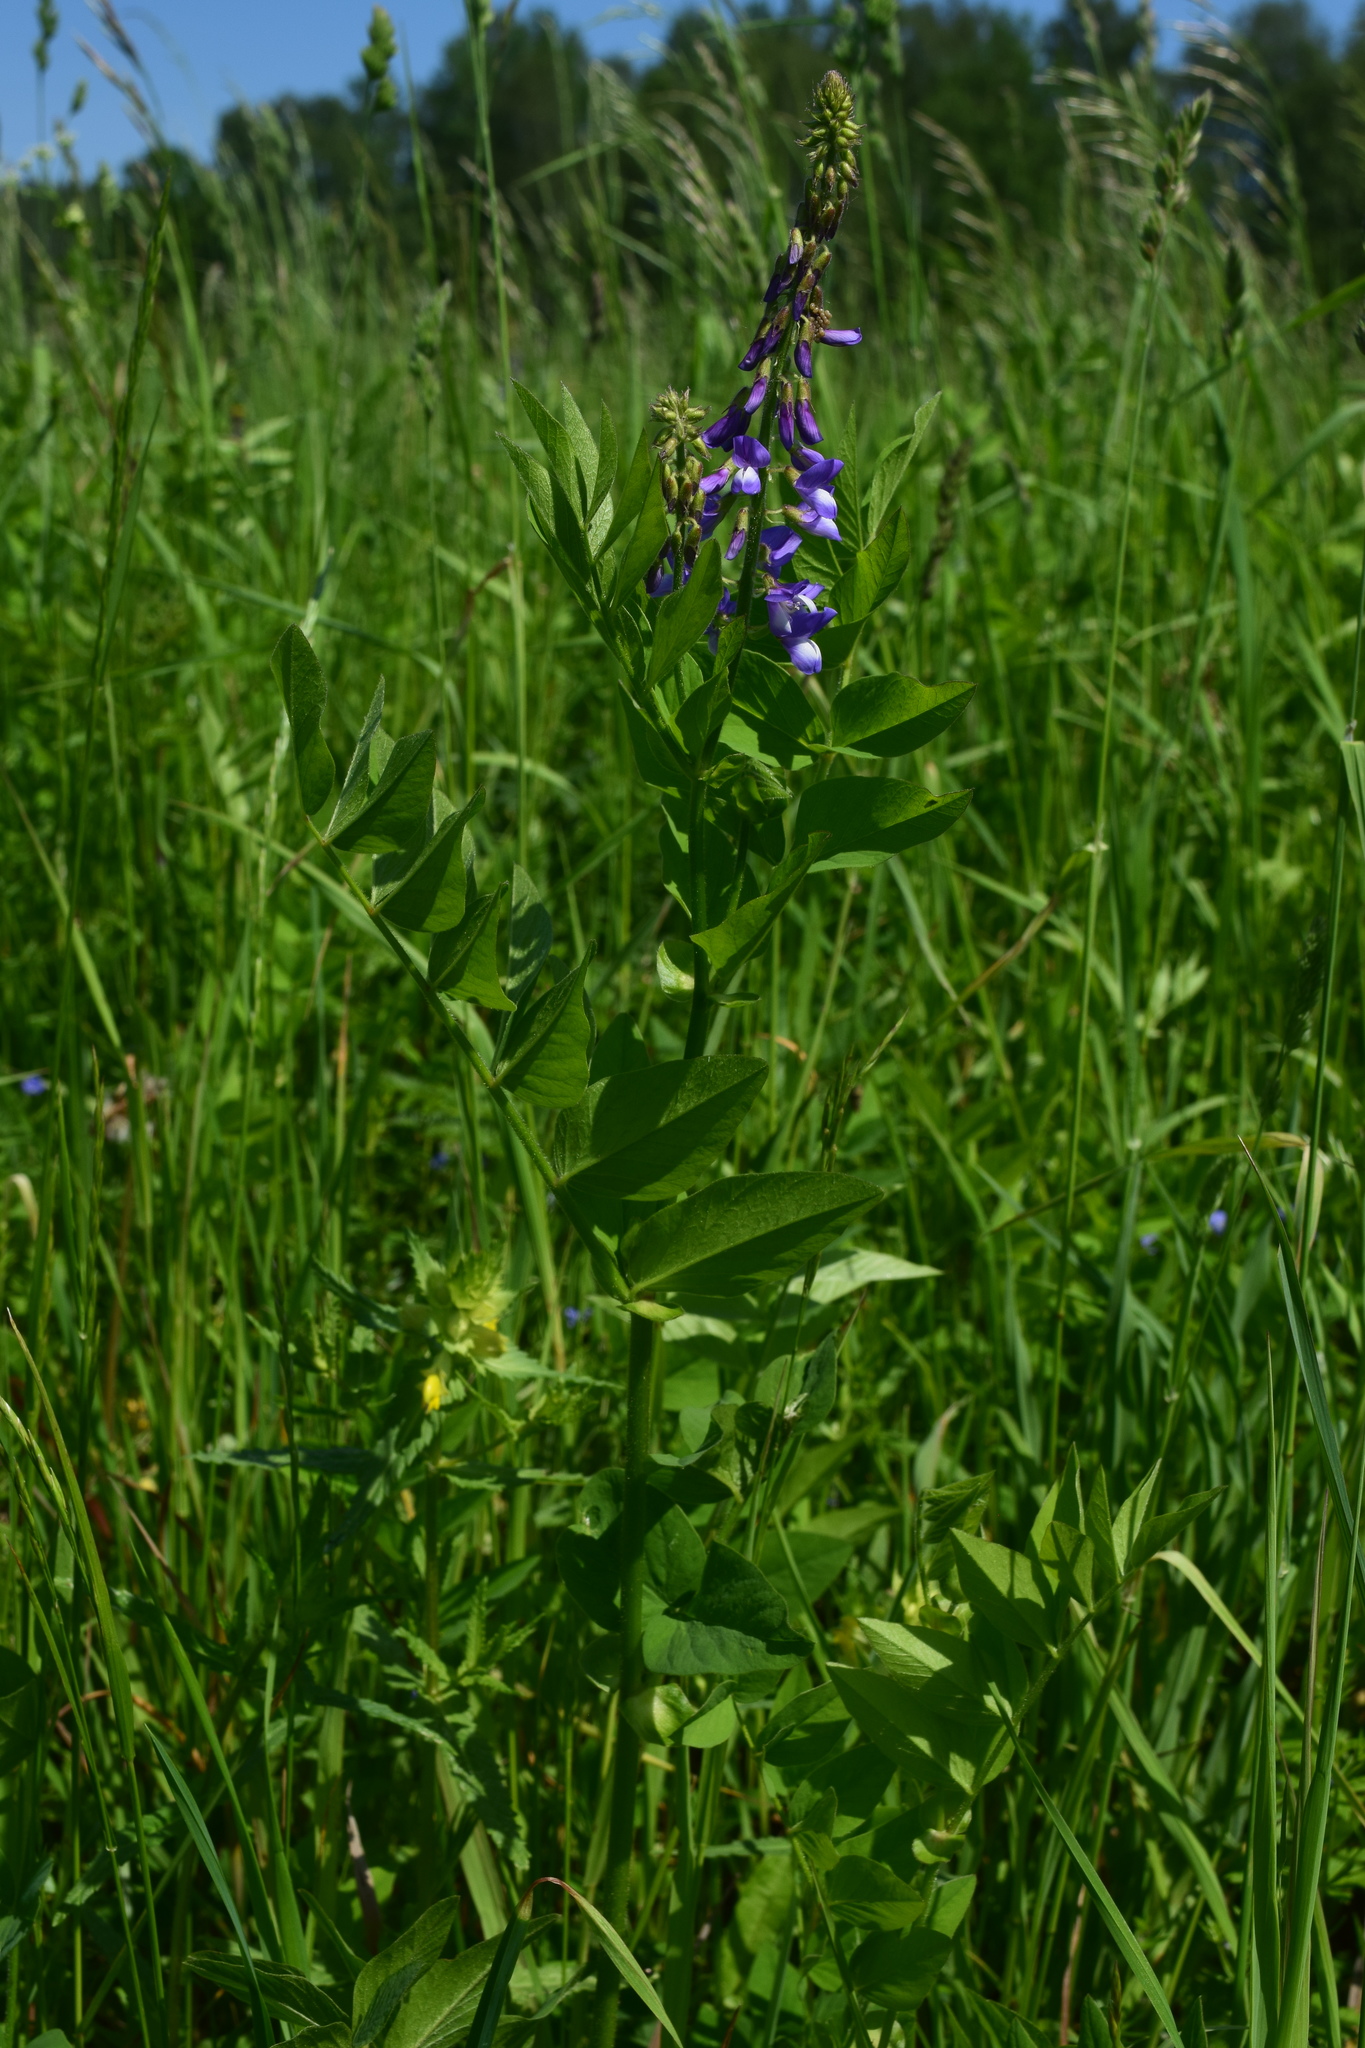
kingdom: Plantae
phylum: Tracheophyta
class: Magnoliopsida
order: Fabales
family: Fabaceae
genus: Galega
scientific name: Galega orientalis
